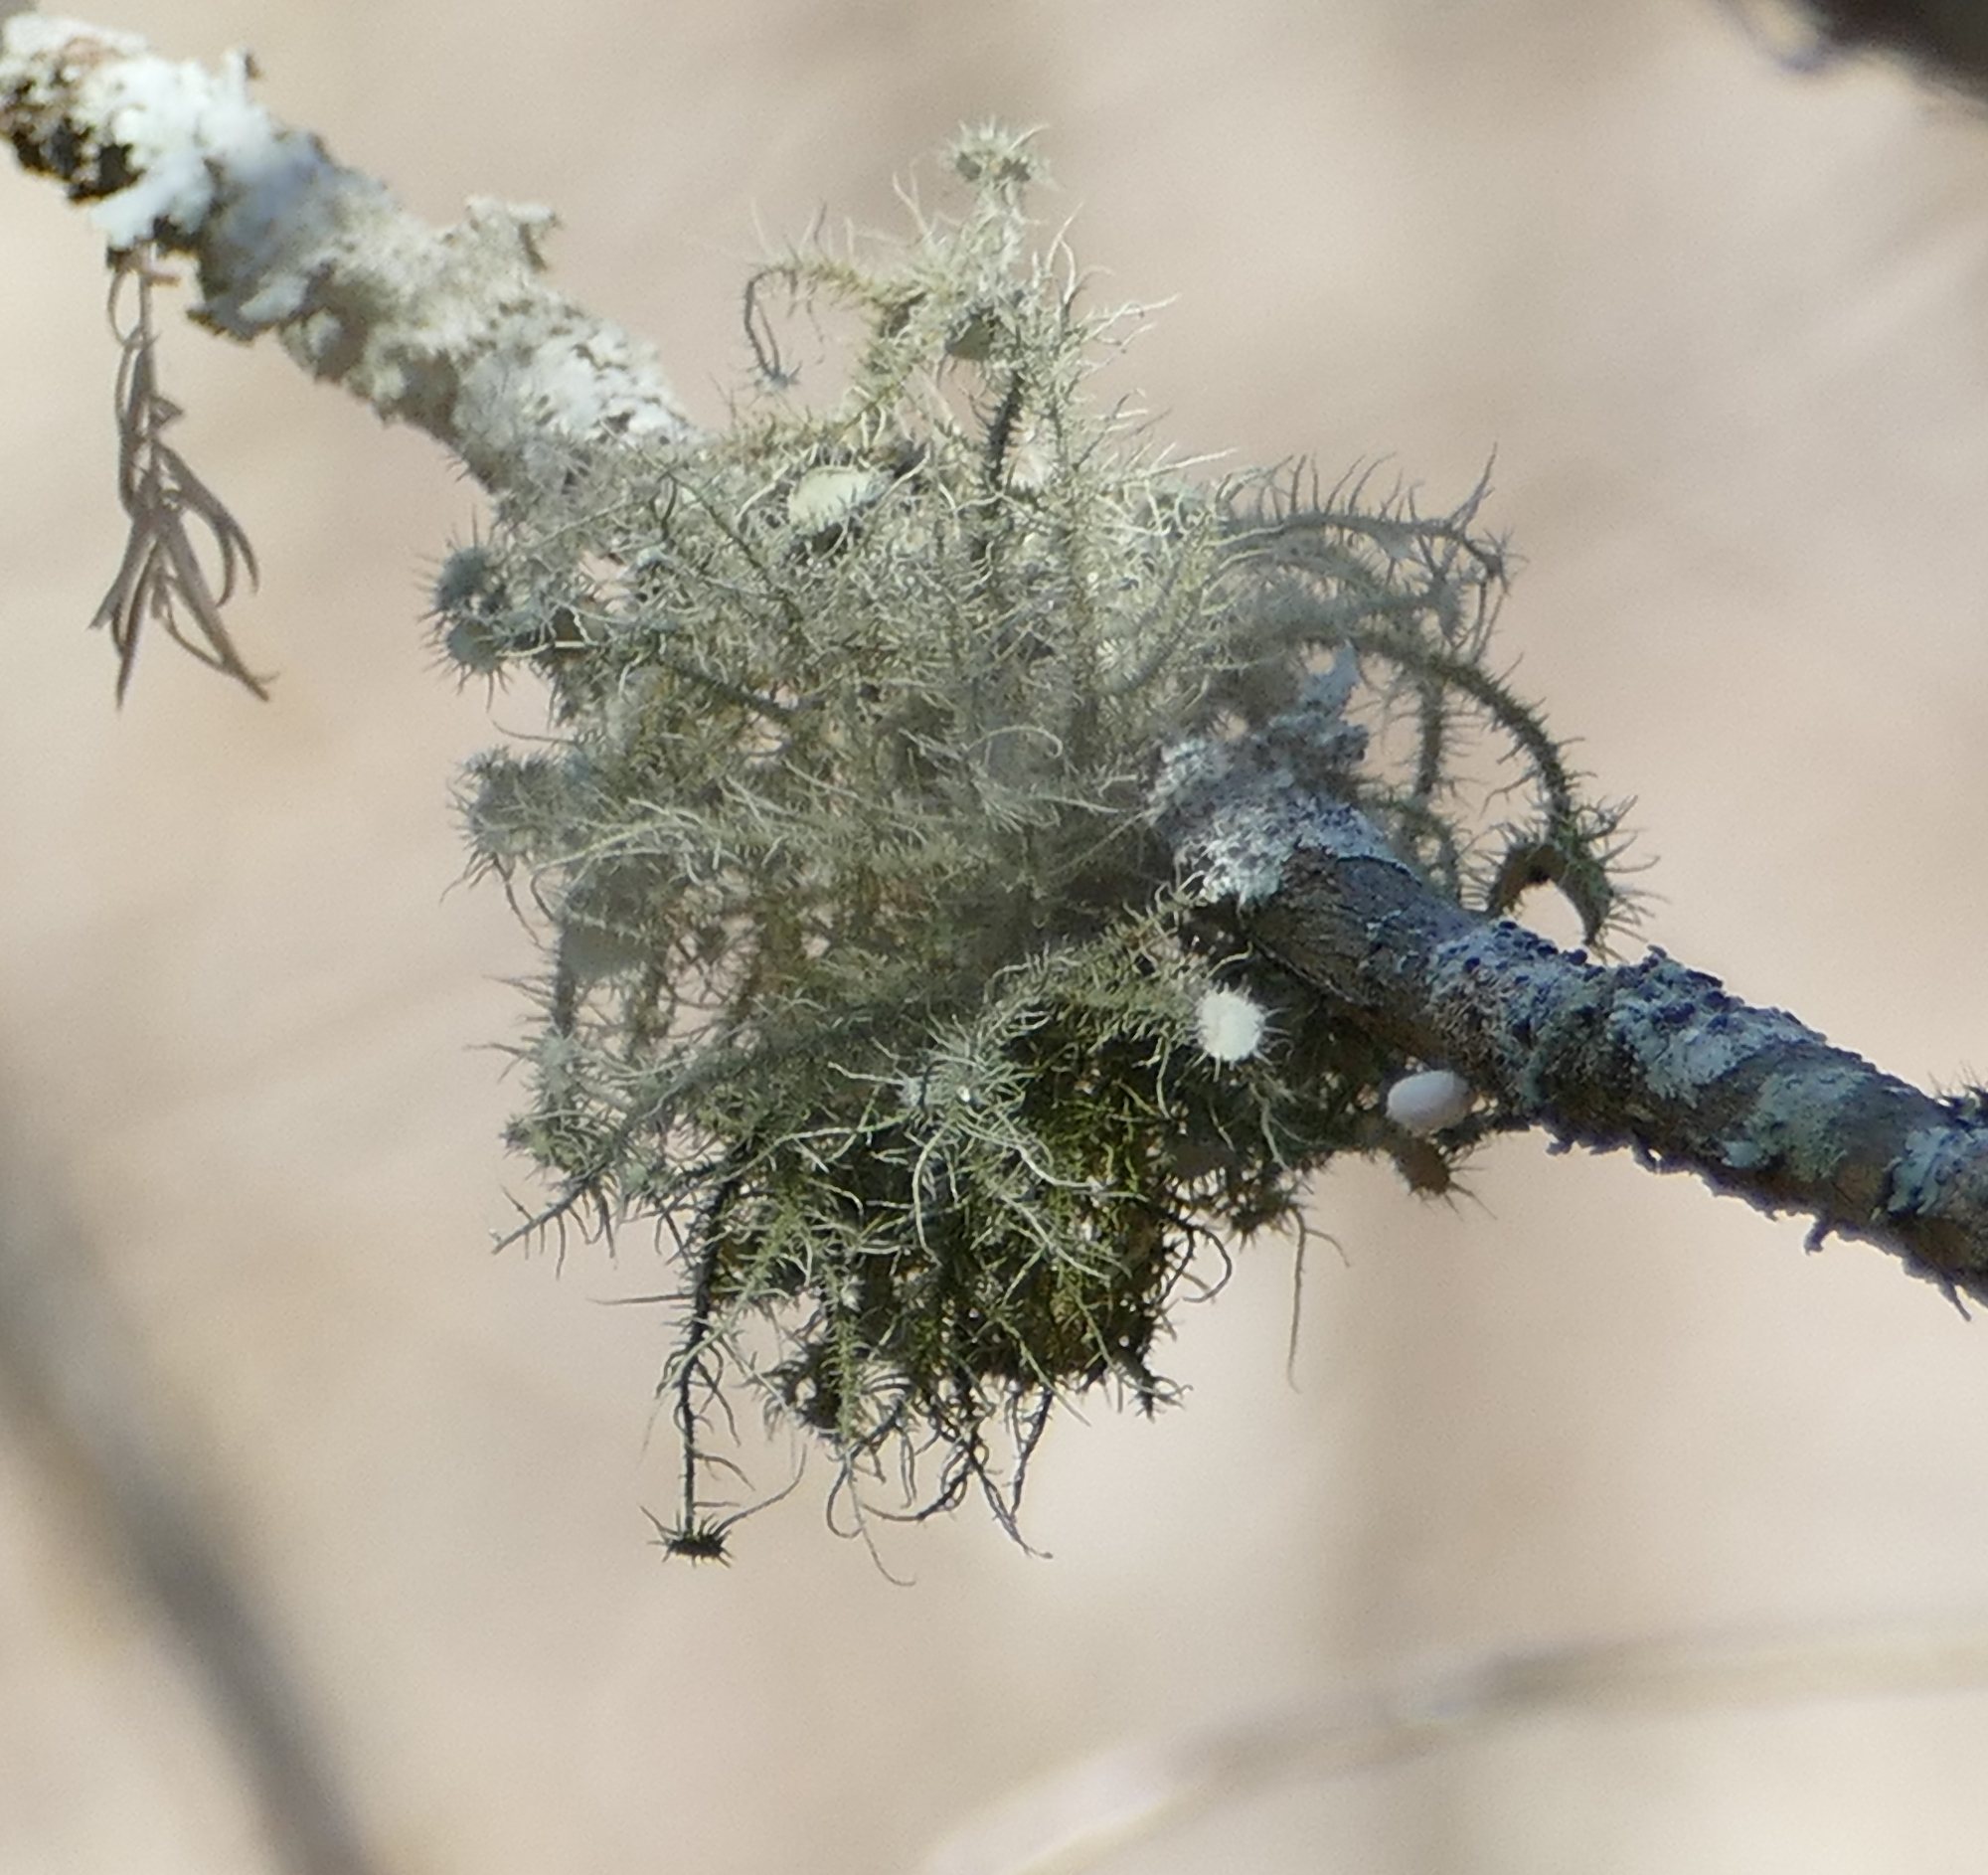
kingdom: Fungi
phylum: Ascomycota
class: Lecanoromycetes
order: Lecanorales
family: Parmeliaceae
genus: Usnea
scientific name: Usnea strigosa
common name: Bushy beard lichen
